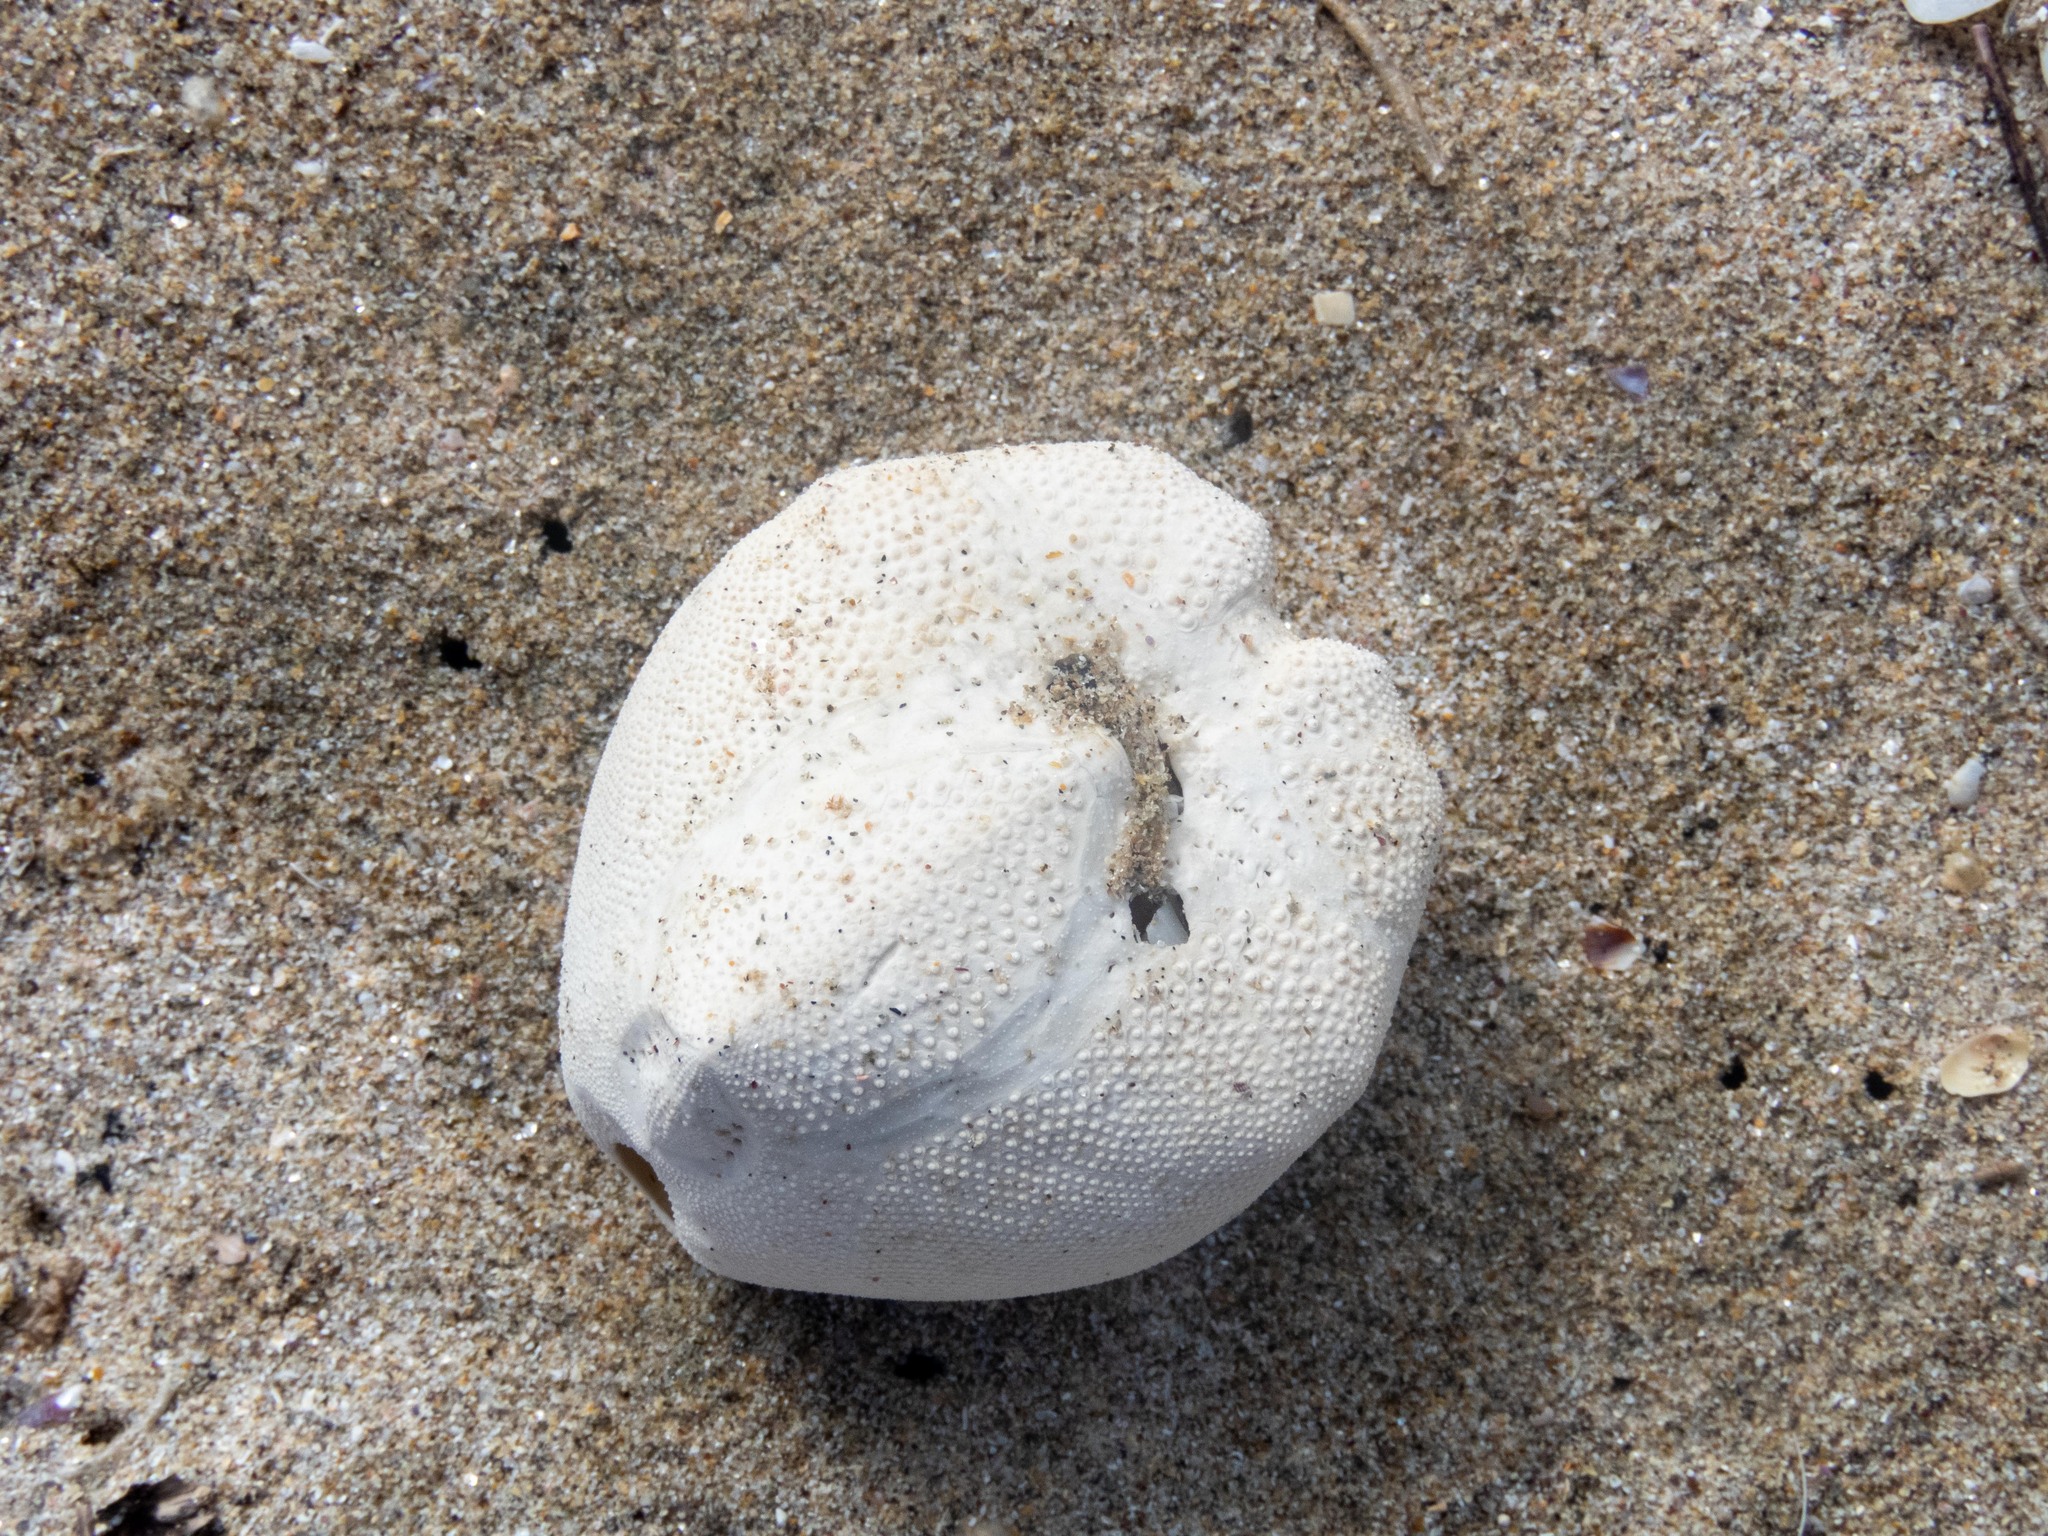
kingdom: Animalia
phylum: Echinodermata
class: Echinoidea
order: Spatangoida
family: Loveniidae
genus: Echinocardium
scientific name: Echinocardium cordatum
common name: Heart-urchin
